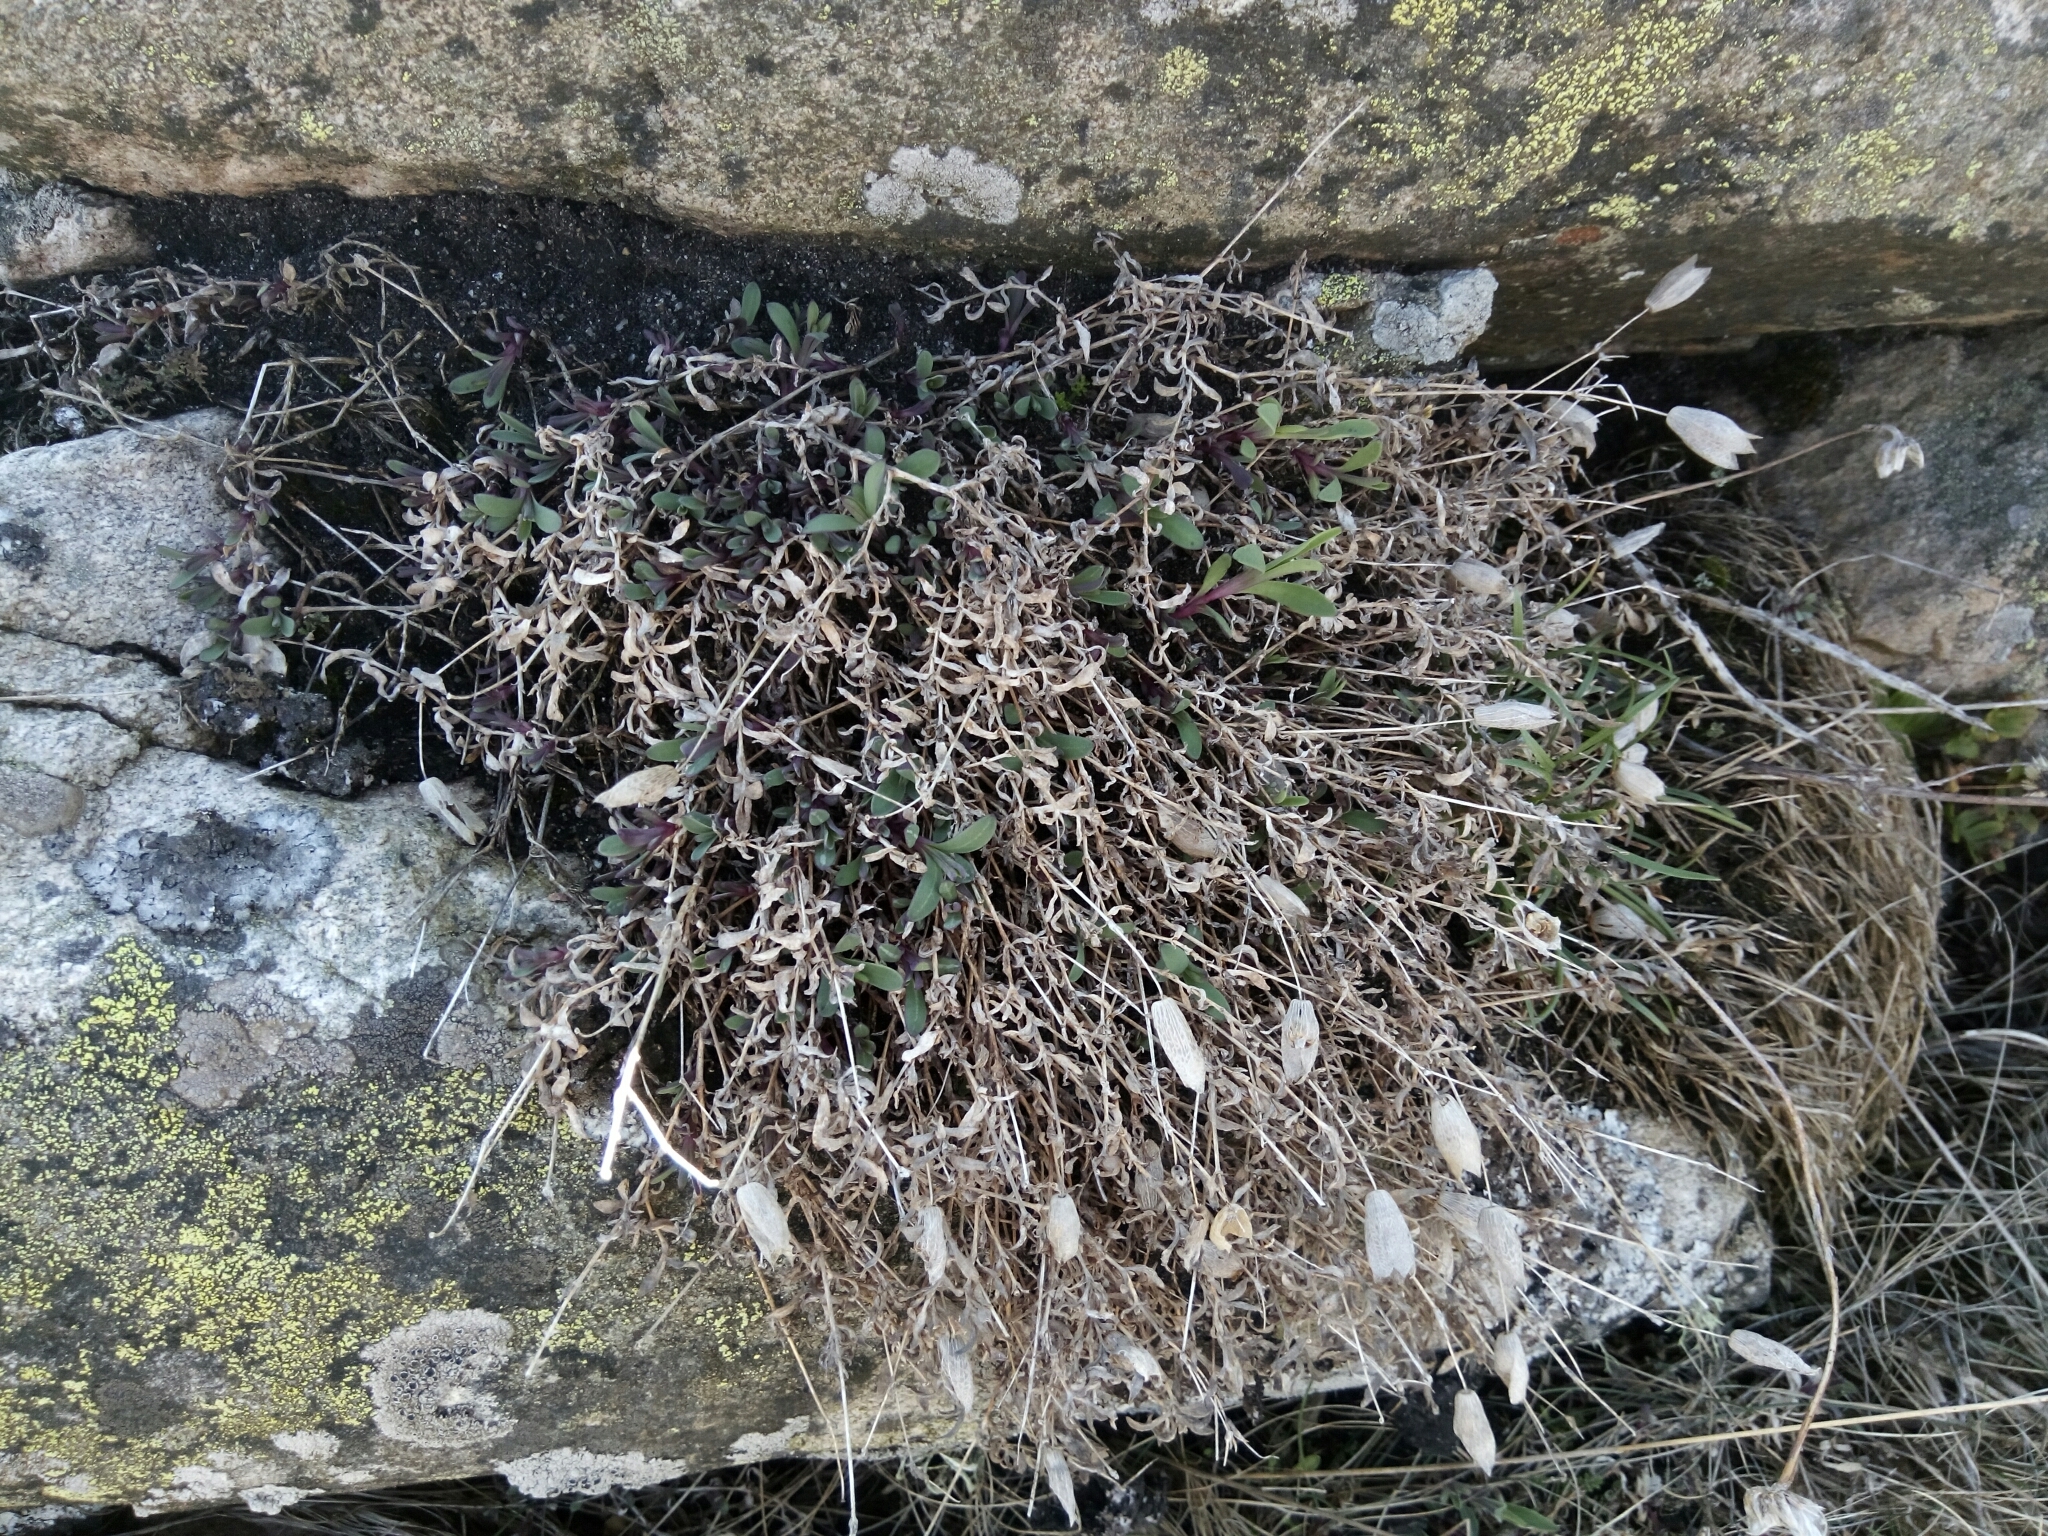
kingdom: Plantae
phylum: Tracheophyta
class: Magnoliopsida
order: Caryophyllales
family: Caryophyllaceae
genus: Silene
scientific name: Silene uniflora
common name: Sea campion
